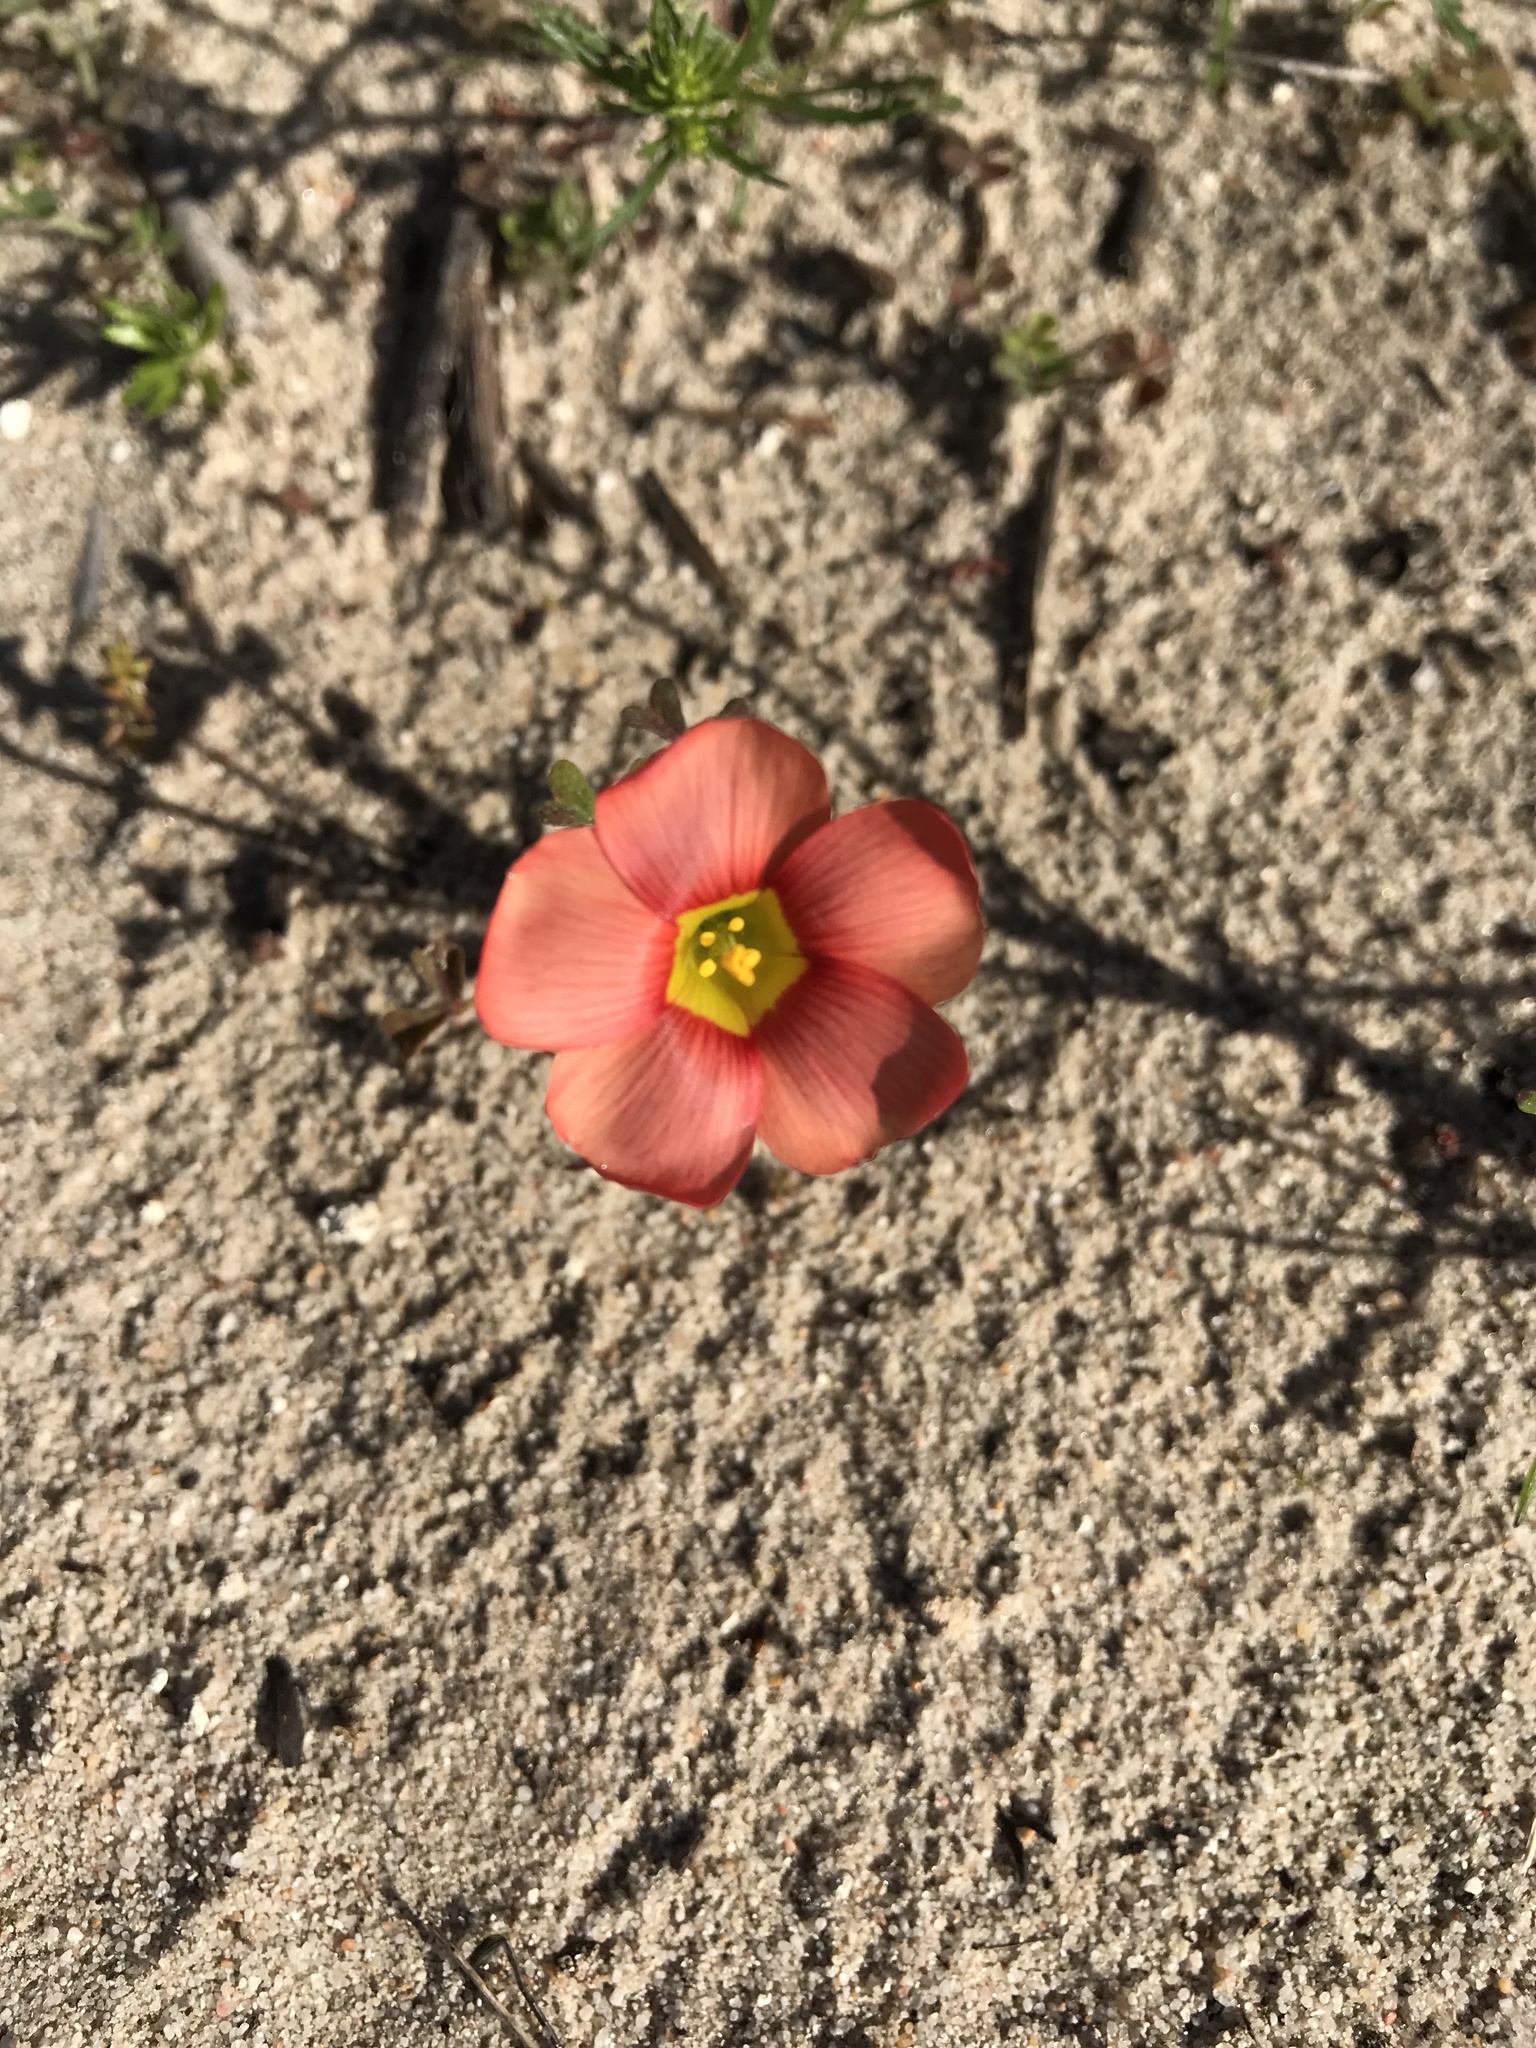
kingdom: Plantae
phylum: Tracheophyta
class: Magnoliopsida
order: Oxalidales
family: Oxalidaceae
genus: Oxalis
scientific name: Oxalis obtusa
